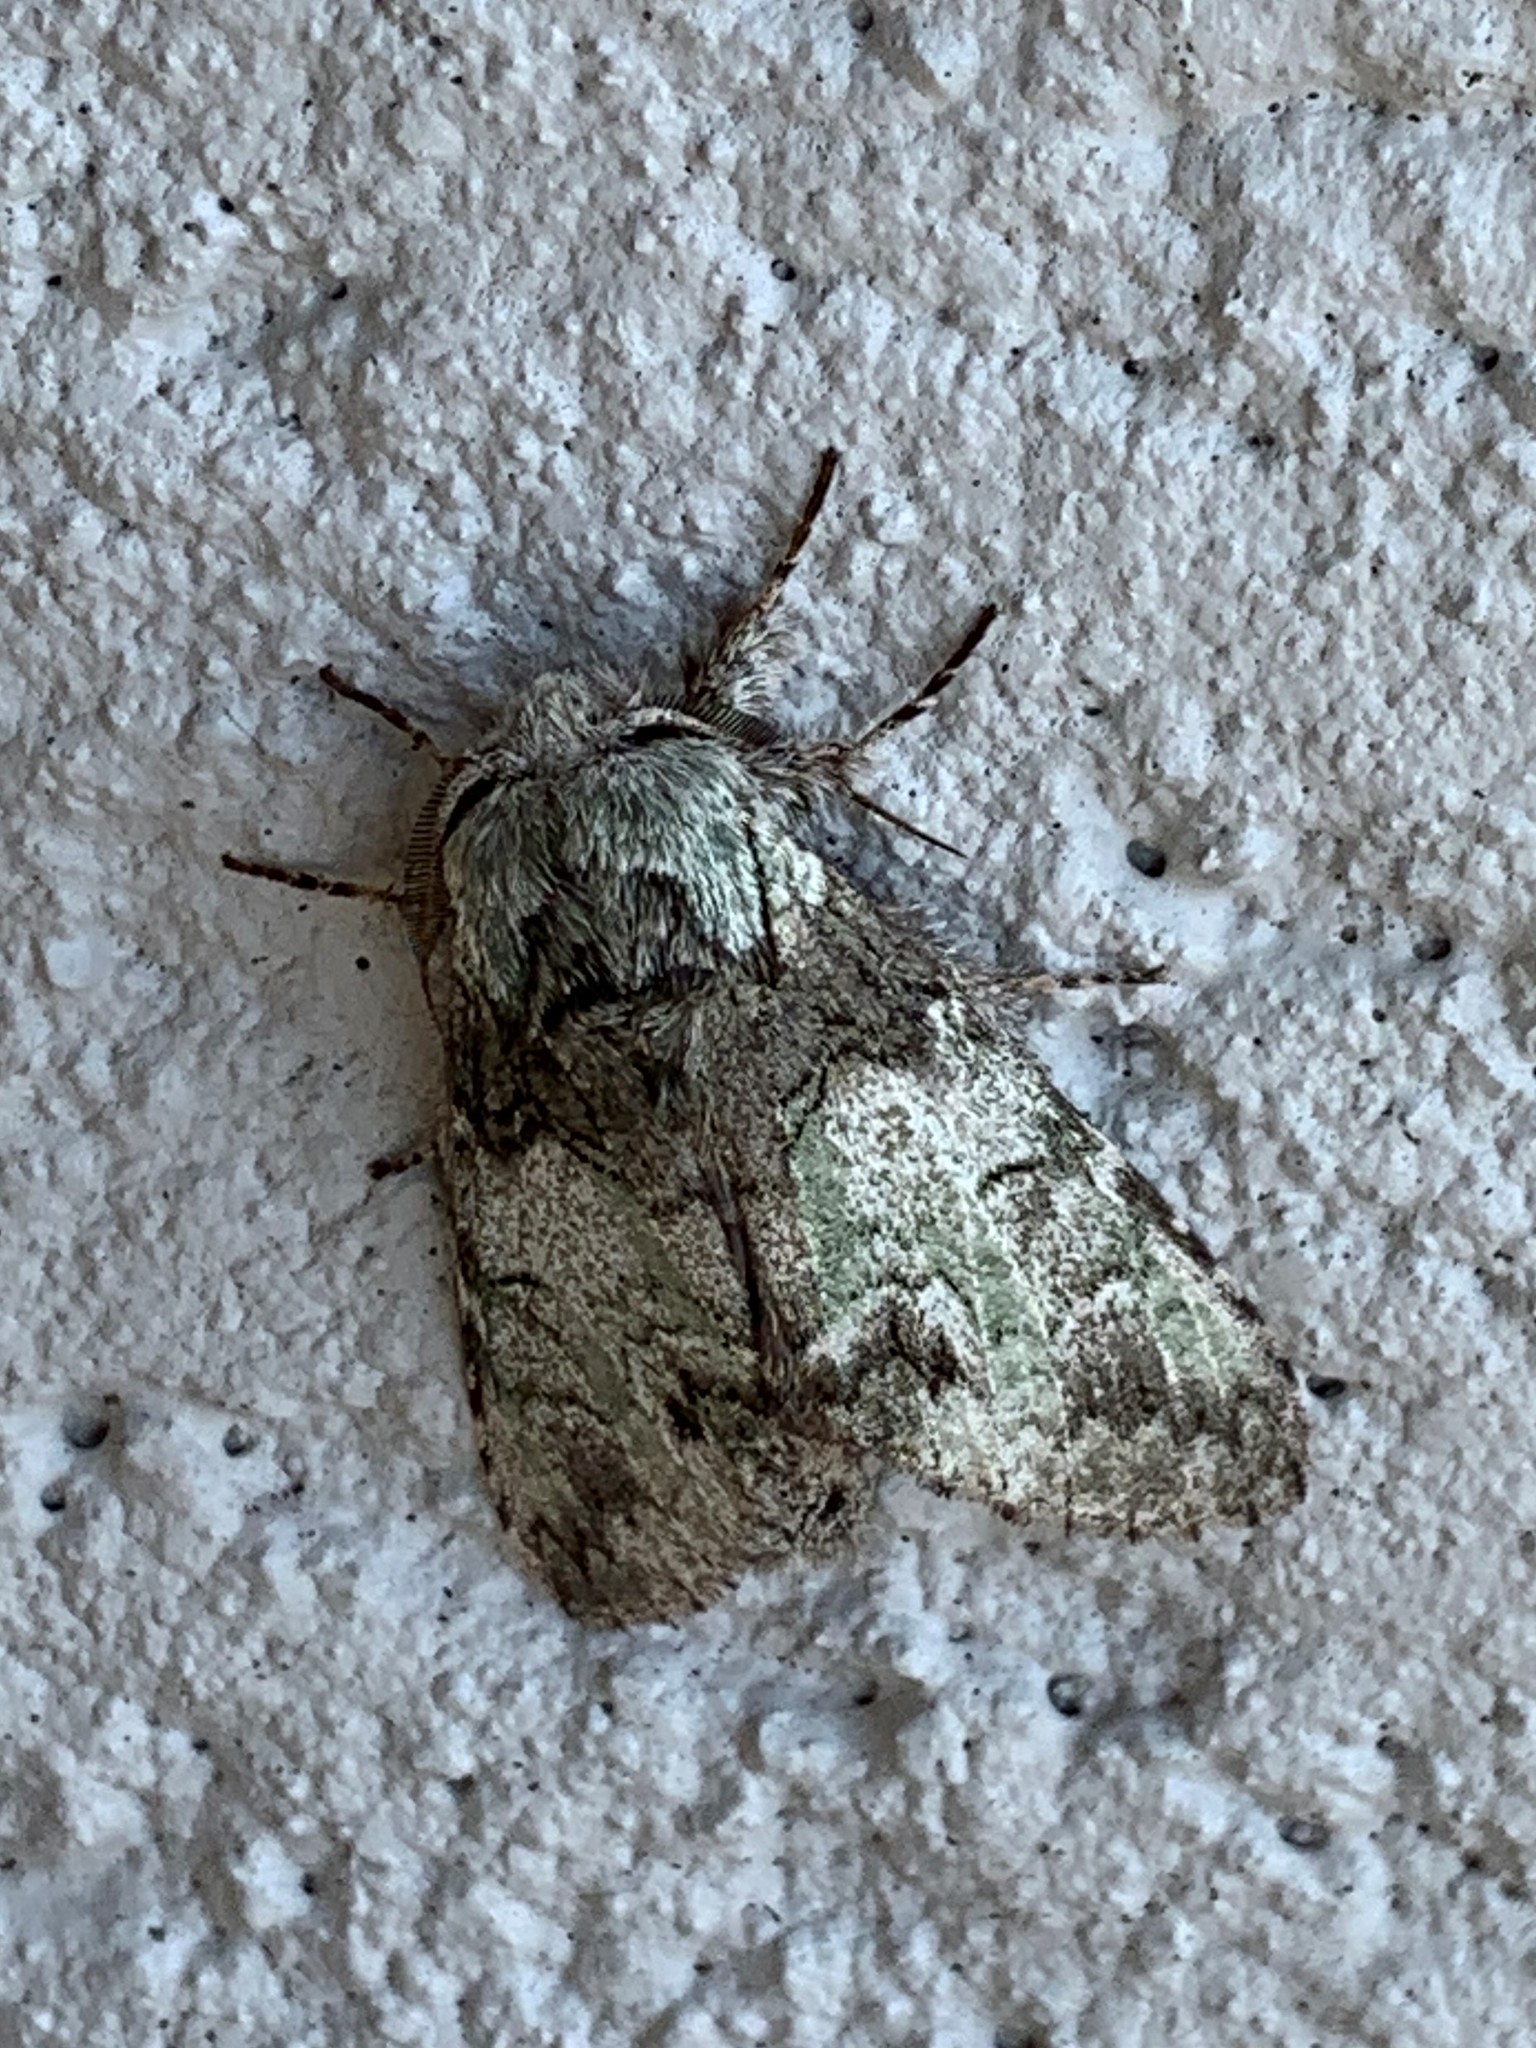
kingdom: Animalia
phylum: Arthropoda
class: Insecta
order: Lepidoptera
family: Notodontidae
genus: Macrurocampa
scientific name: Macrurocampa marthesia
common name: Mottled prominent
